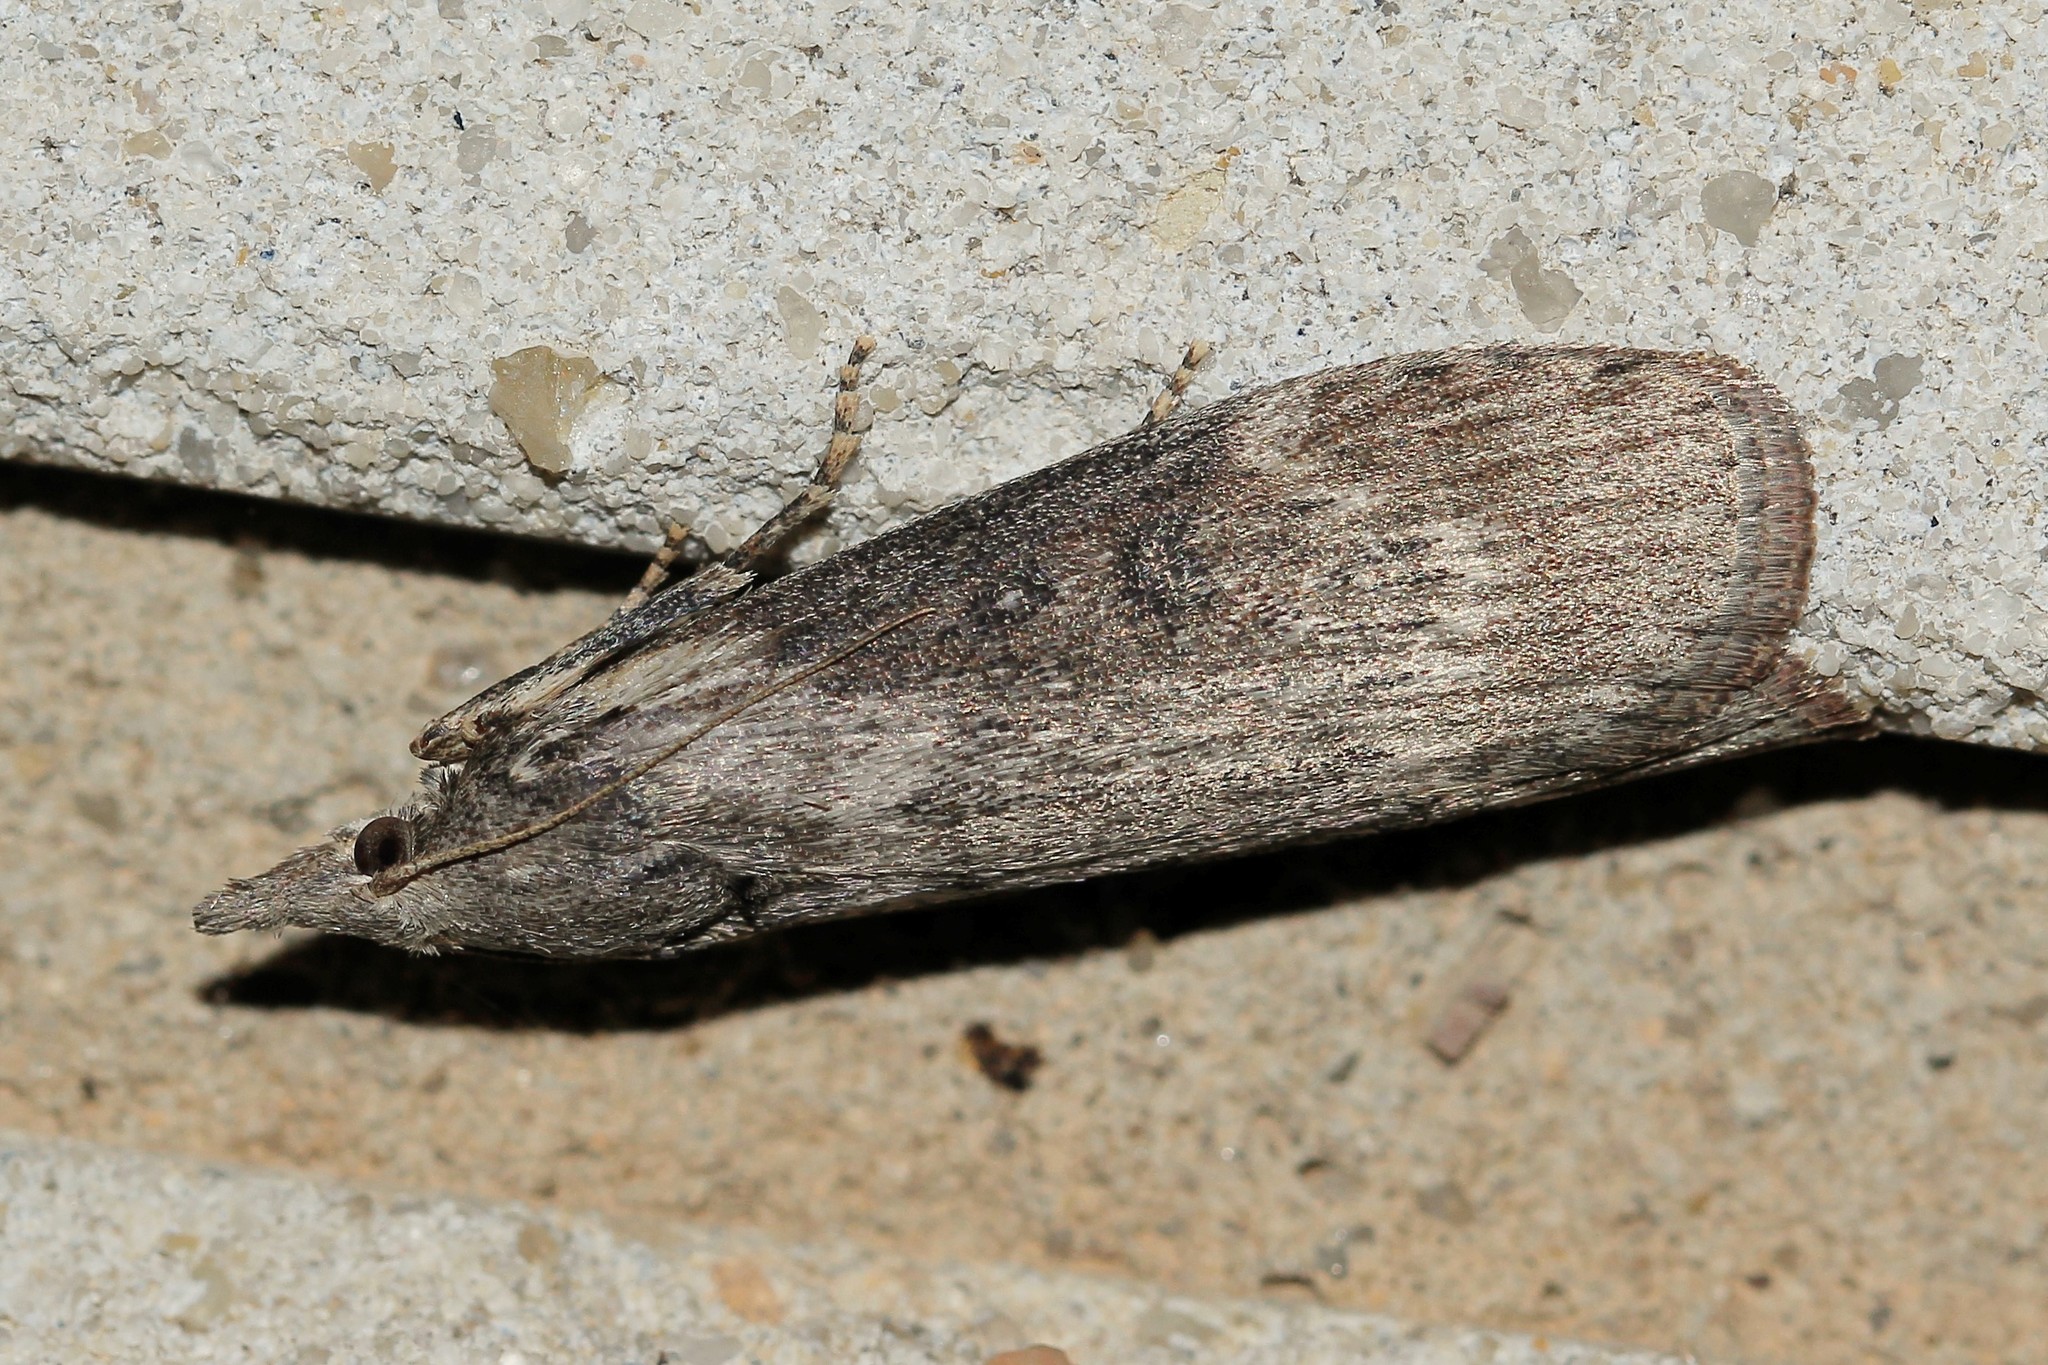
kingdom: Animalia
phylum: Arthropoda
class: Insecta
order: Lepidoptera
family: Pyralidae
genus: Lamoria
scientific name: Lamoria anella
